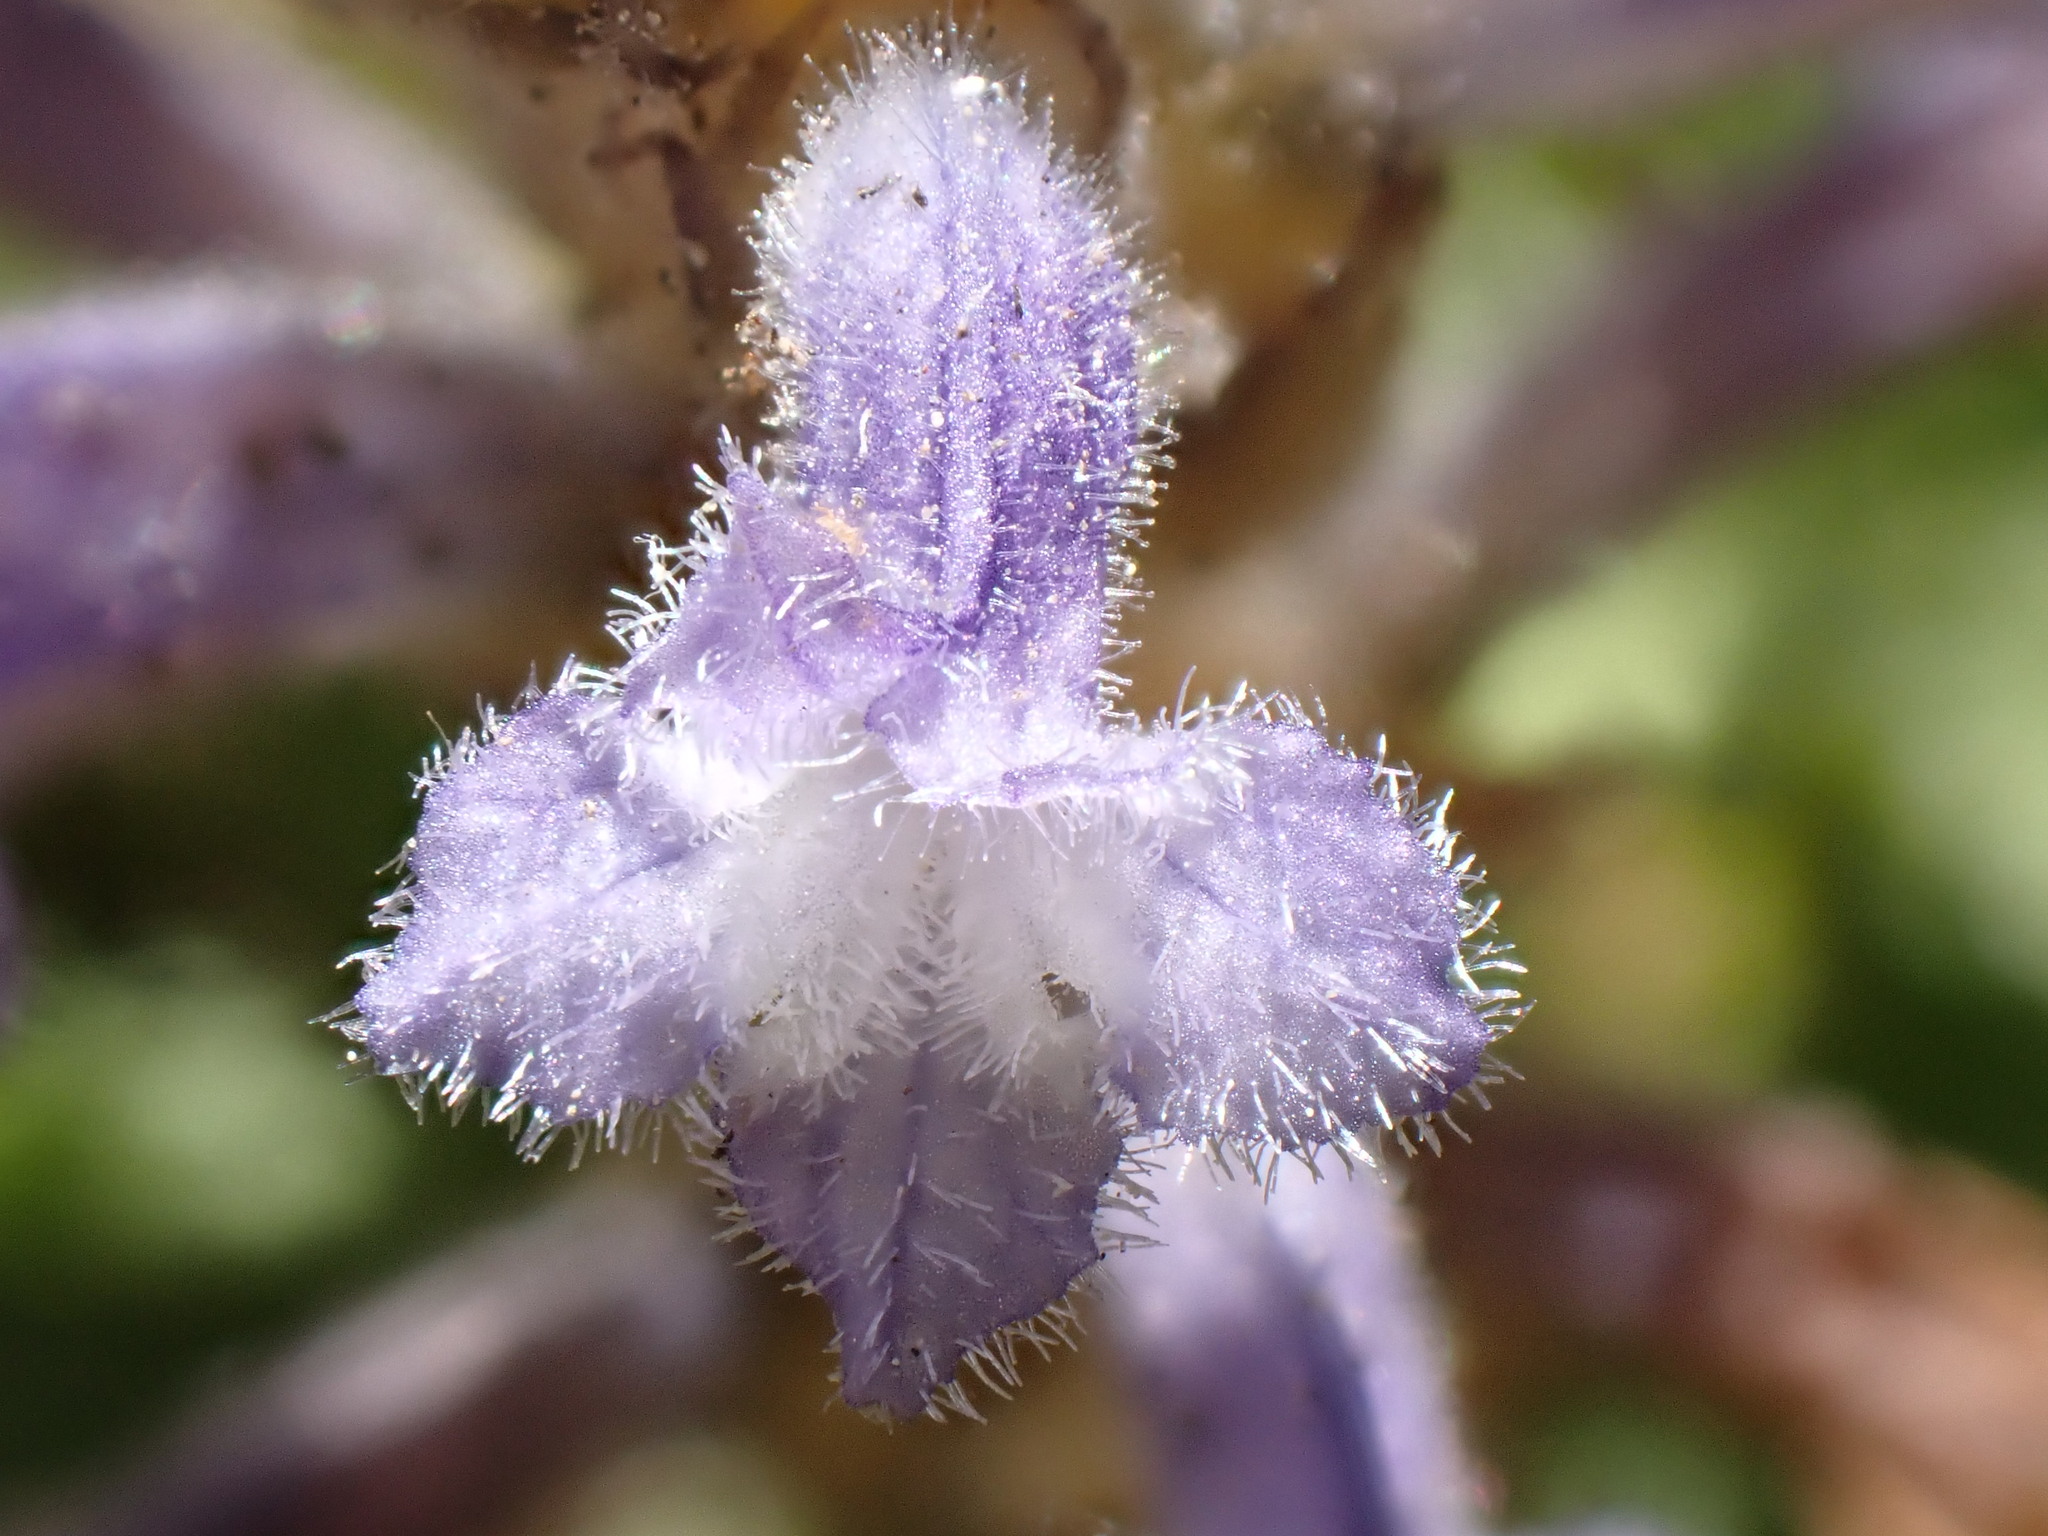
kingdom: Plantae
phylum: Tracheophyta
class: Magnoliopsida
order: Lamiales
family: Orobanchaceae
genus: Phelipanche
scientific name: Phelipanche mutelii
